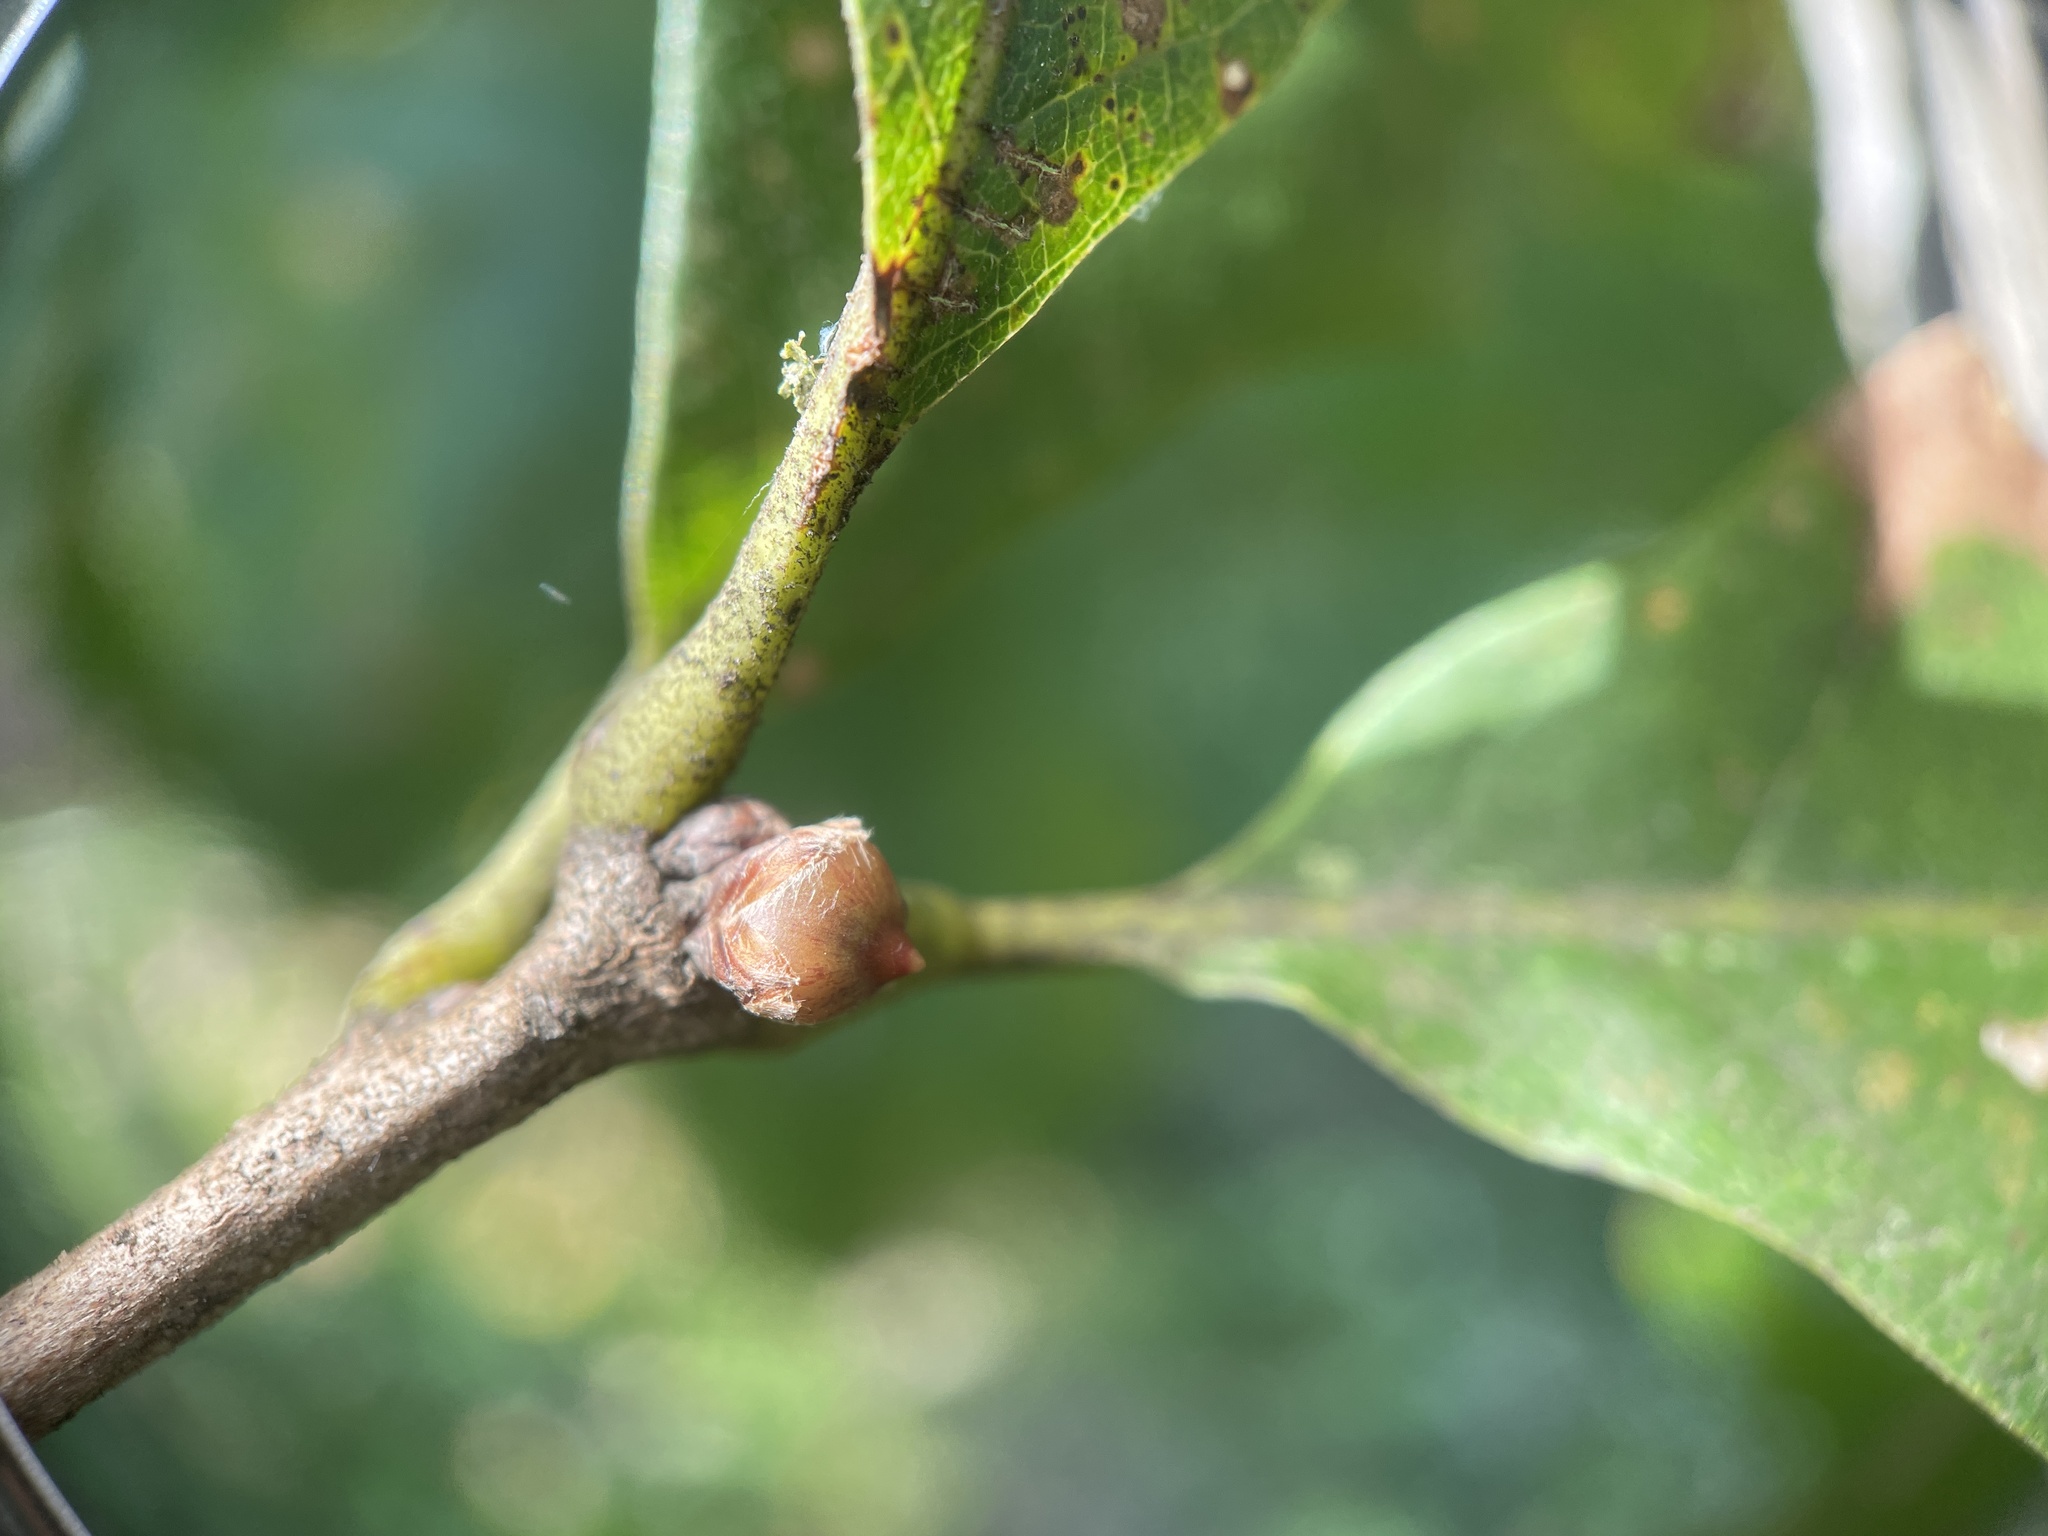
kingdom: Animalia
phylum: Arthropoda
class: Insecta
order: Hymenoptera
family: Cynipidae
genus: Andricus
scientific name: Andricus
